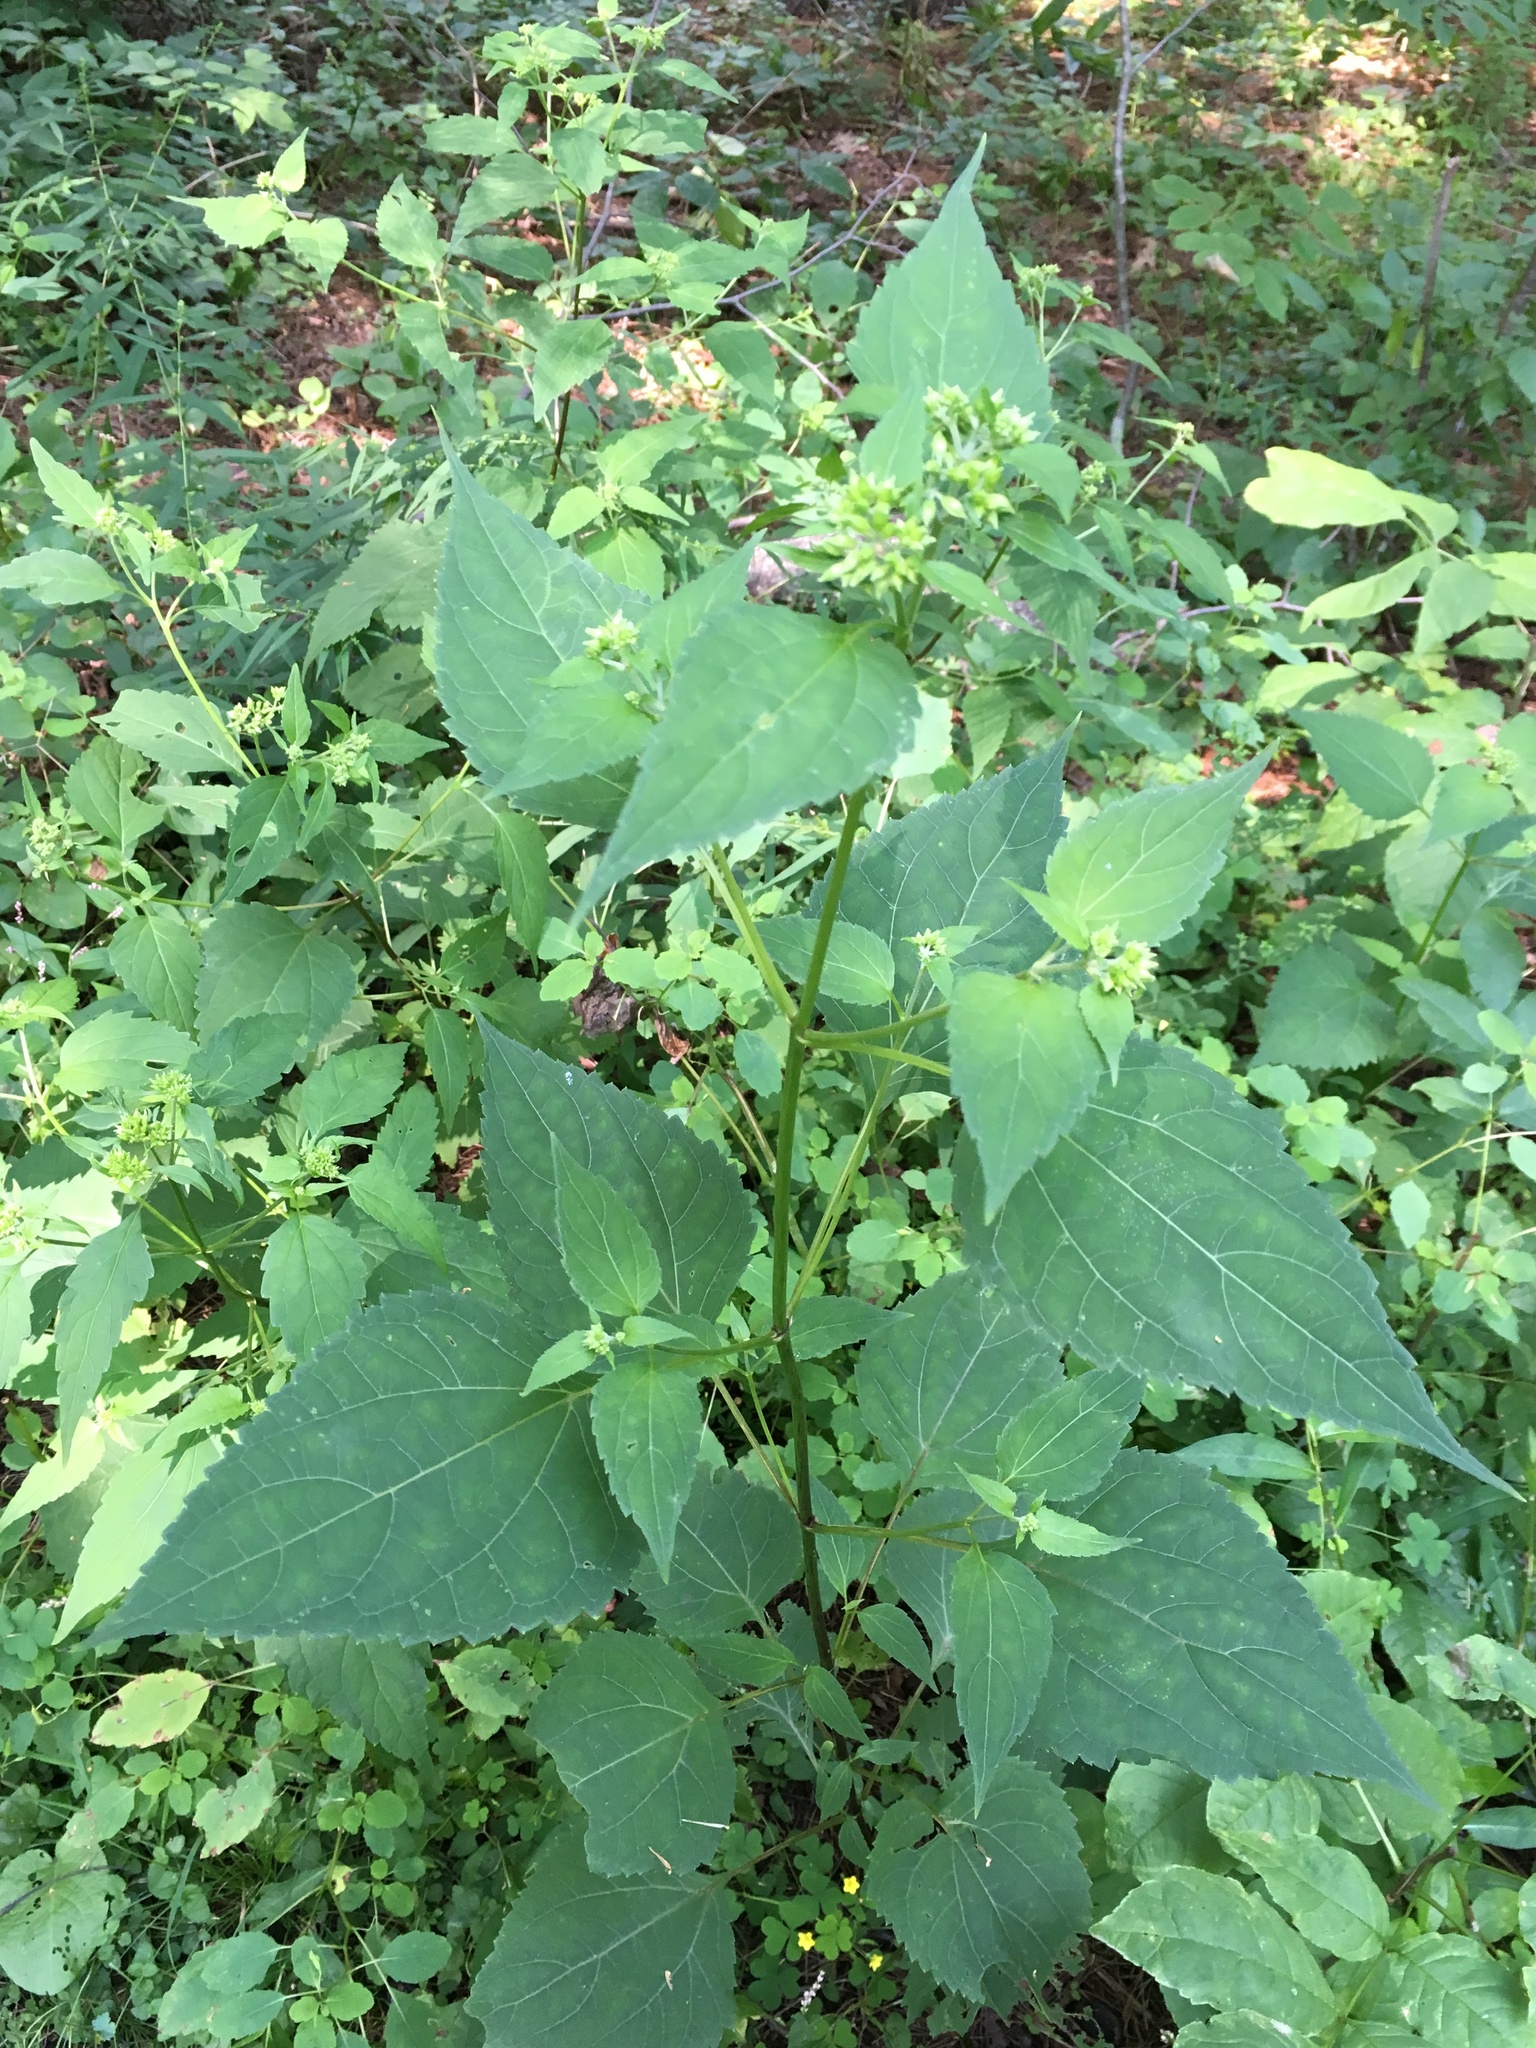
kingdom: Plantae
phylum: Tracheophyta
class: Magnoliopsida
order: Asterales
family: Asteraceae
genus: Ageratina
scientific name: Ageratina altissima
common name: White snakeroot
